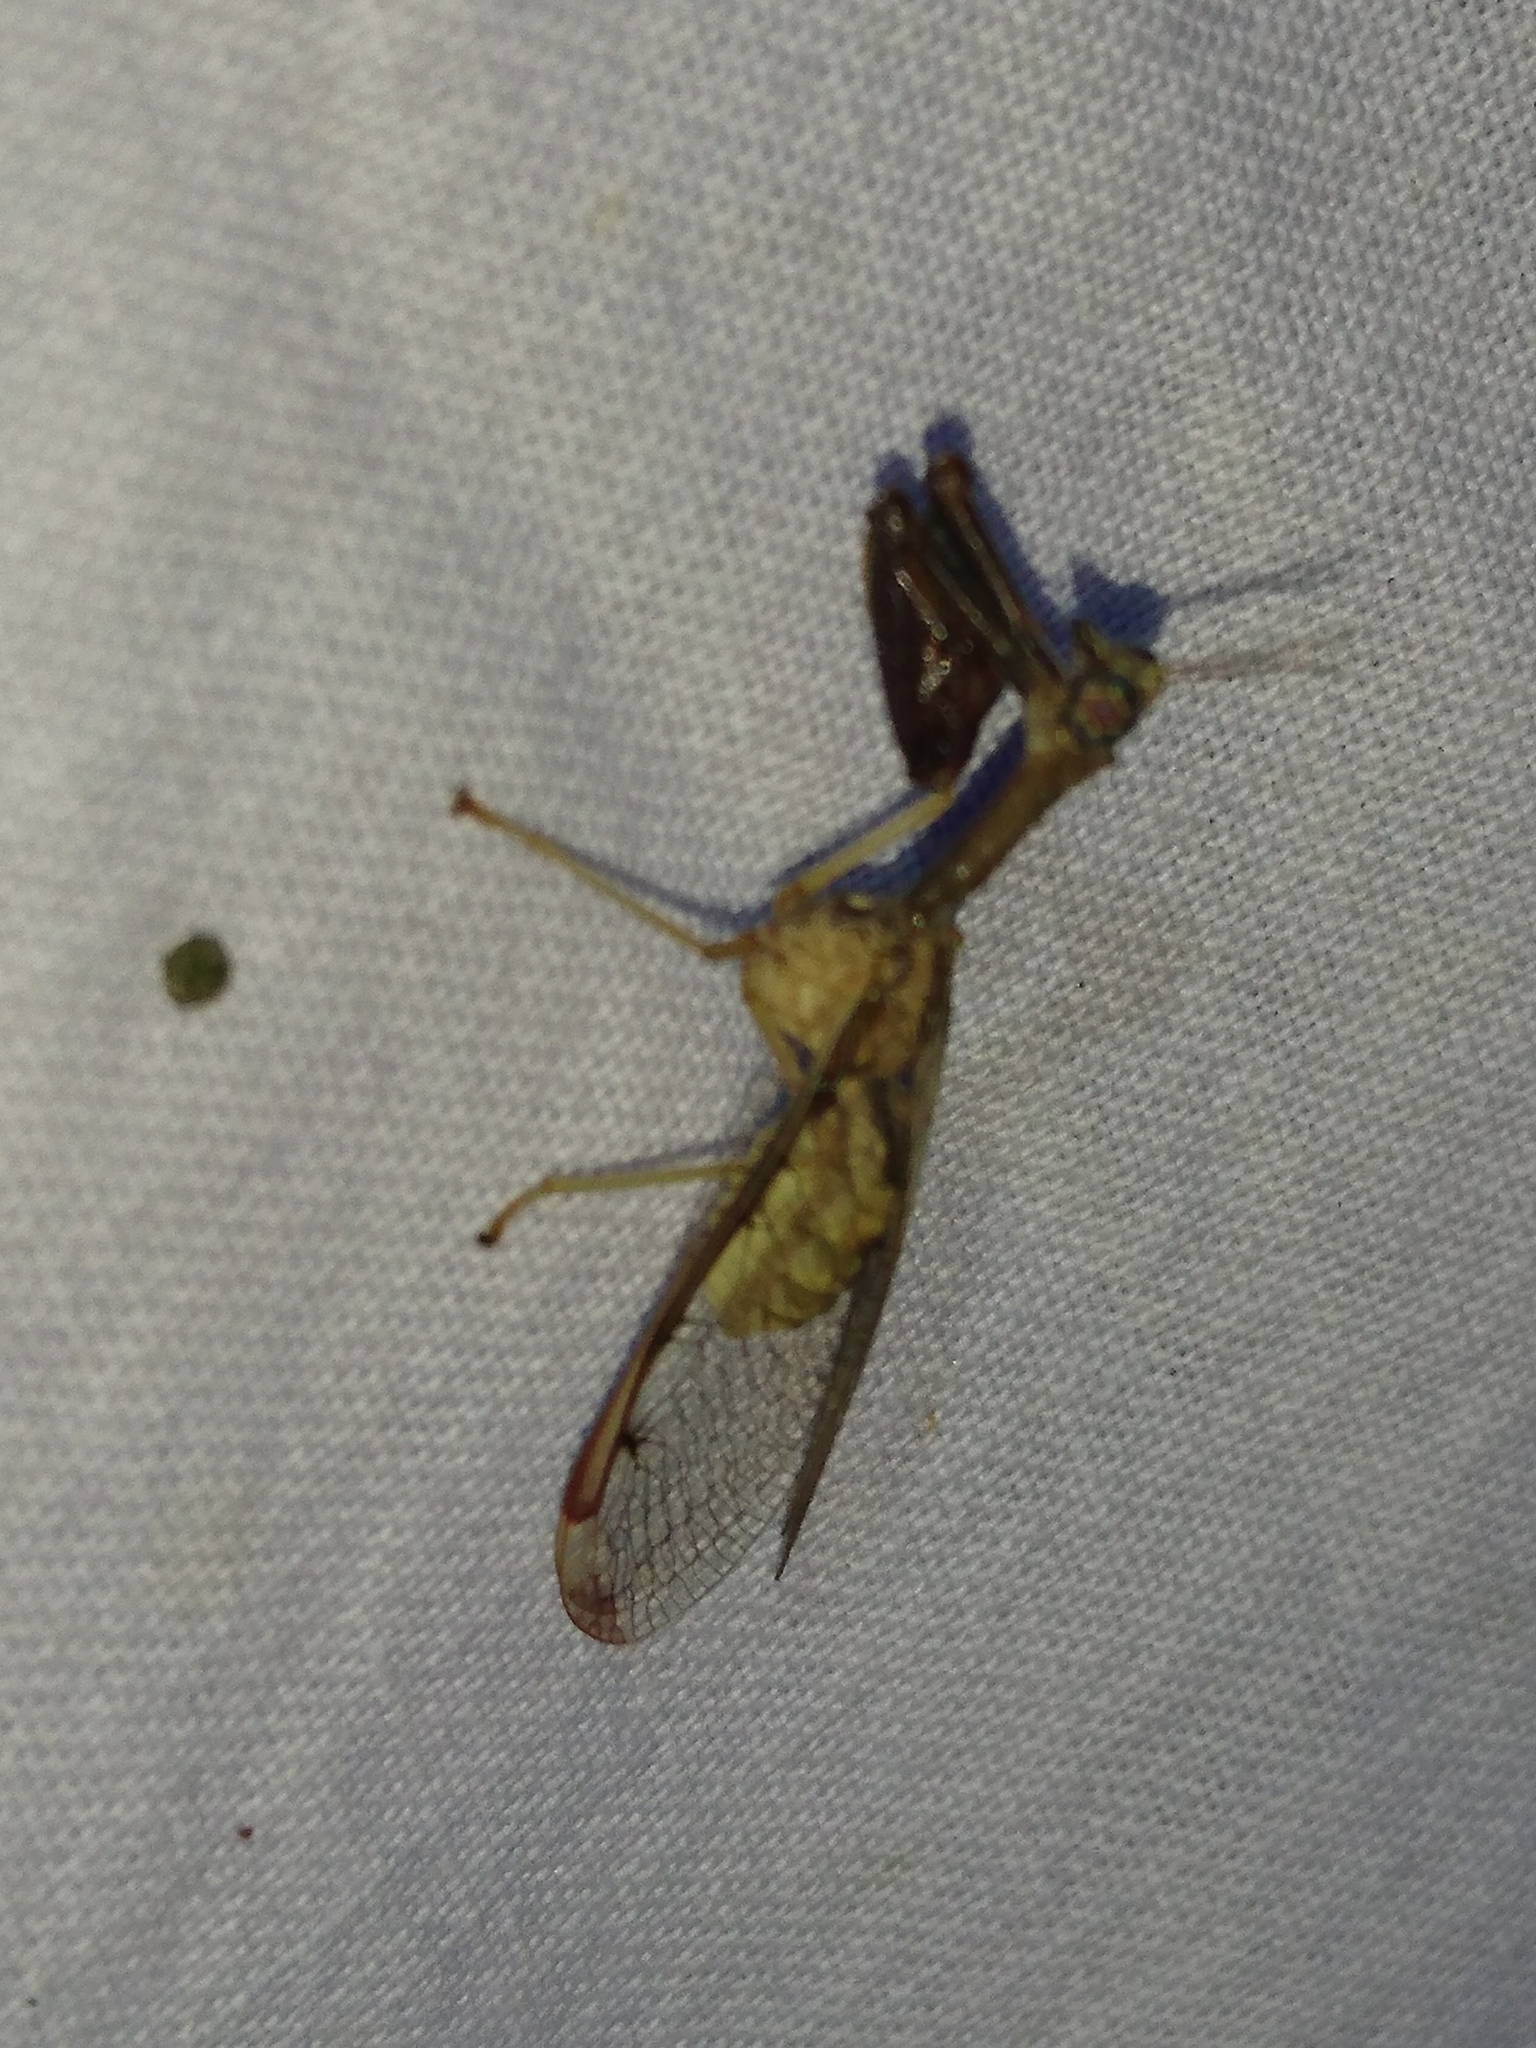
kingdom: Animalia
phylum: Arthropoda
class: Insecta
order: Neuroptera
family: Mantispidae
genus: Dicromantispa
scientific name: Dicromantispa interrupta
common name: Four-spotted mantidfly
